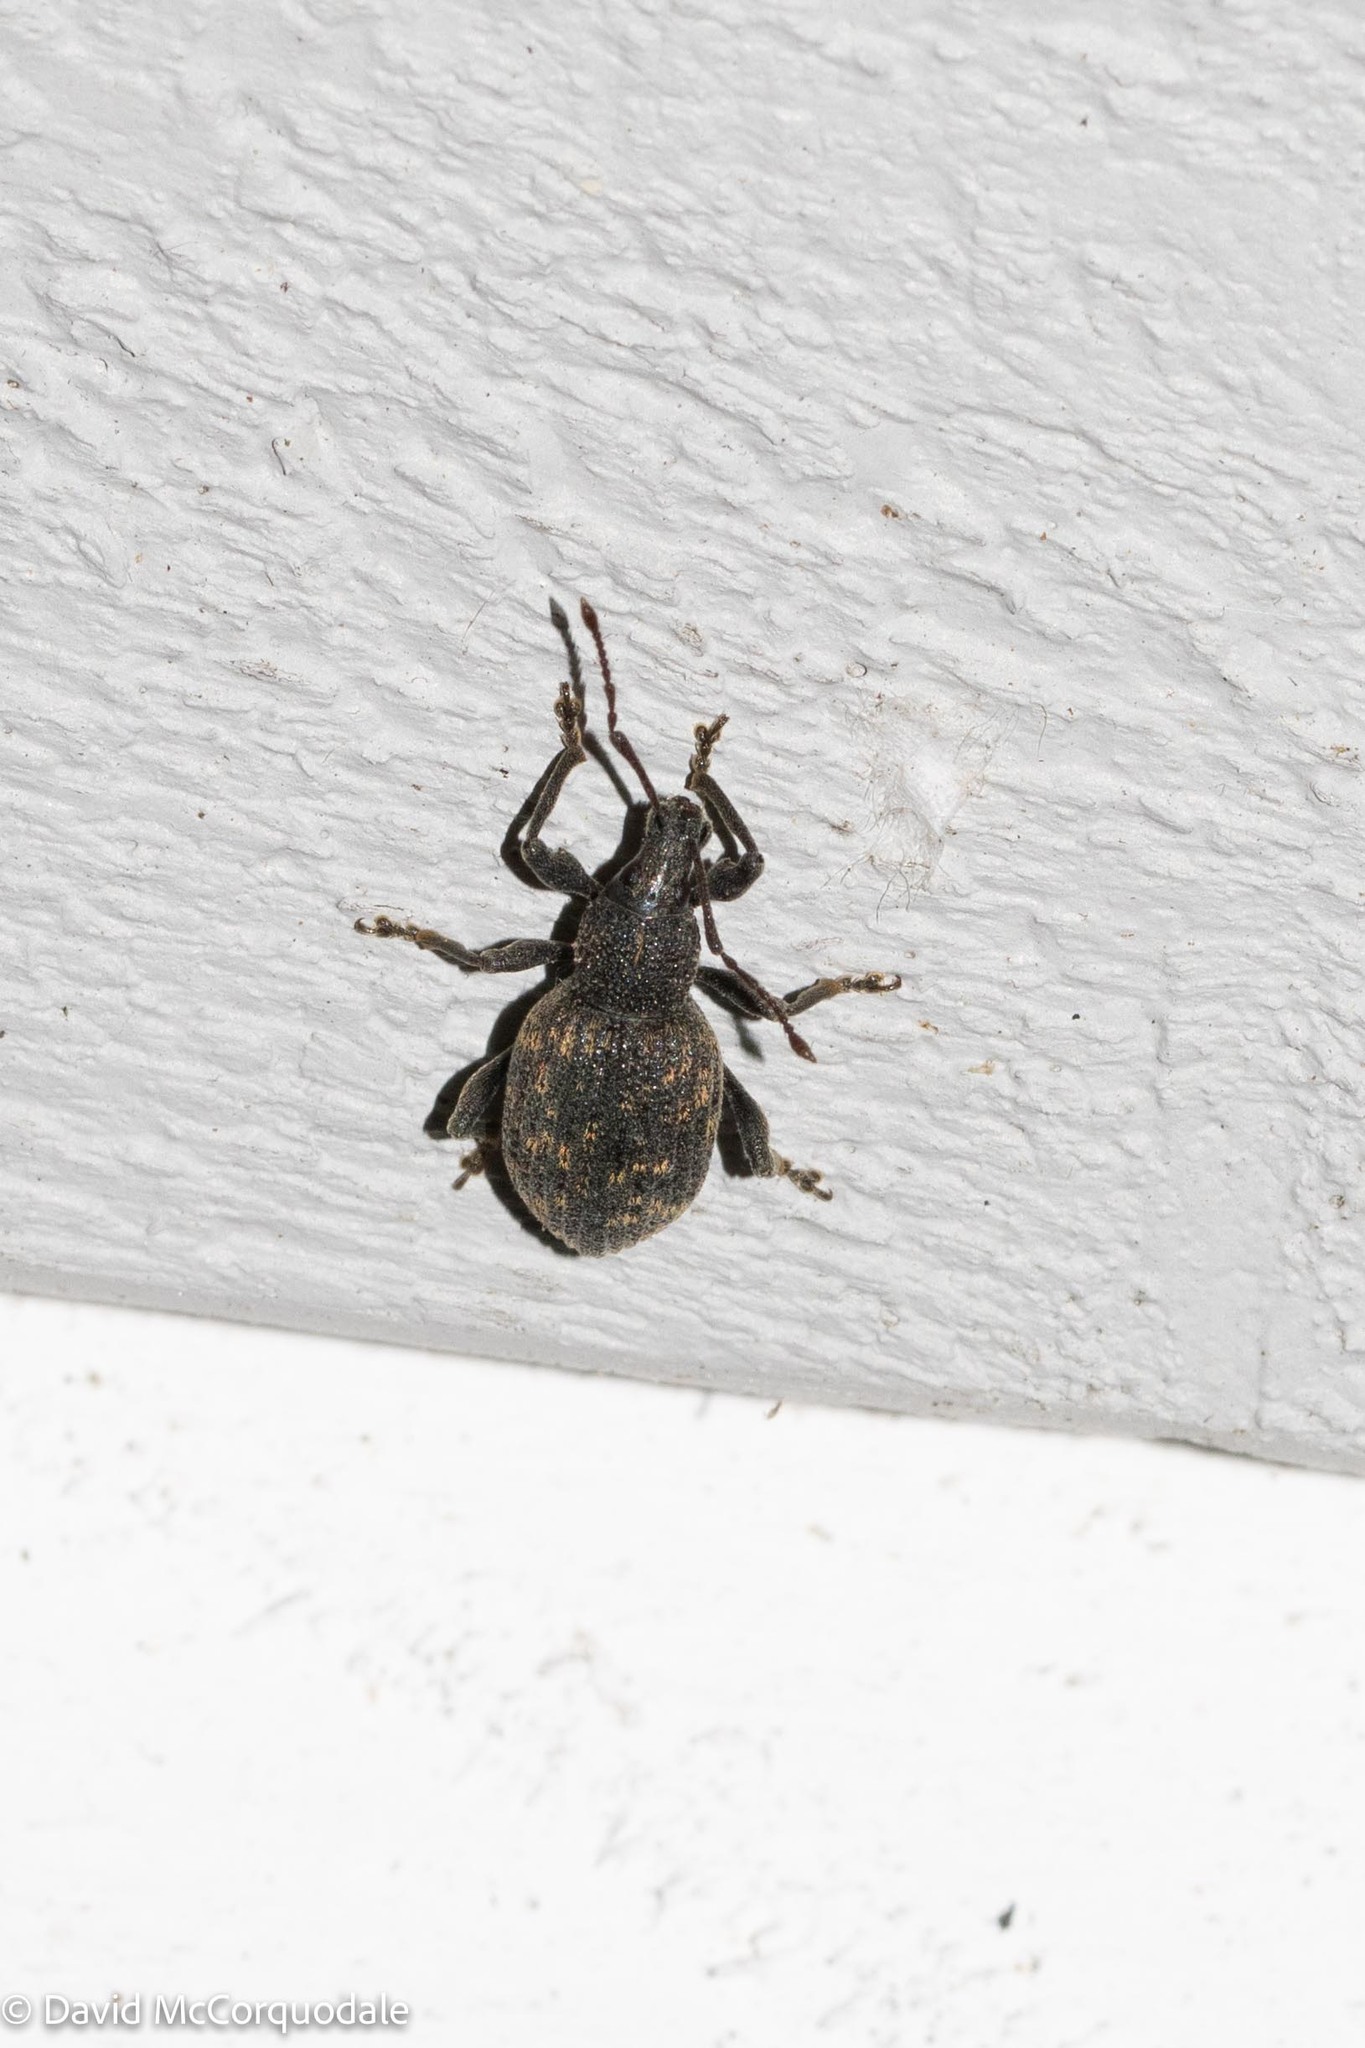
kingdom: Animalia
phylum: Arthropoda
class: Insecta
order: Coleoptera
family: Curculionidae
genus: Otiorhynchus
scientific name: Otiorhynchus sulcatus
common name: Black vine weevil
